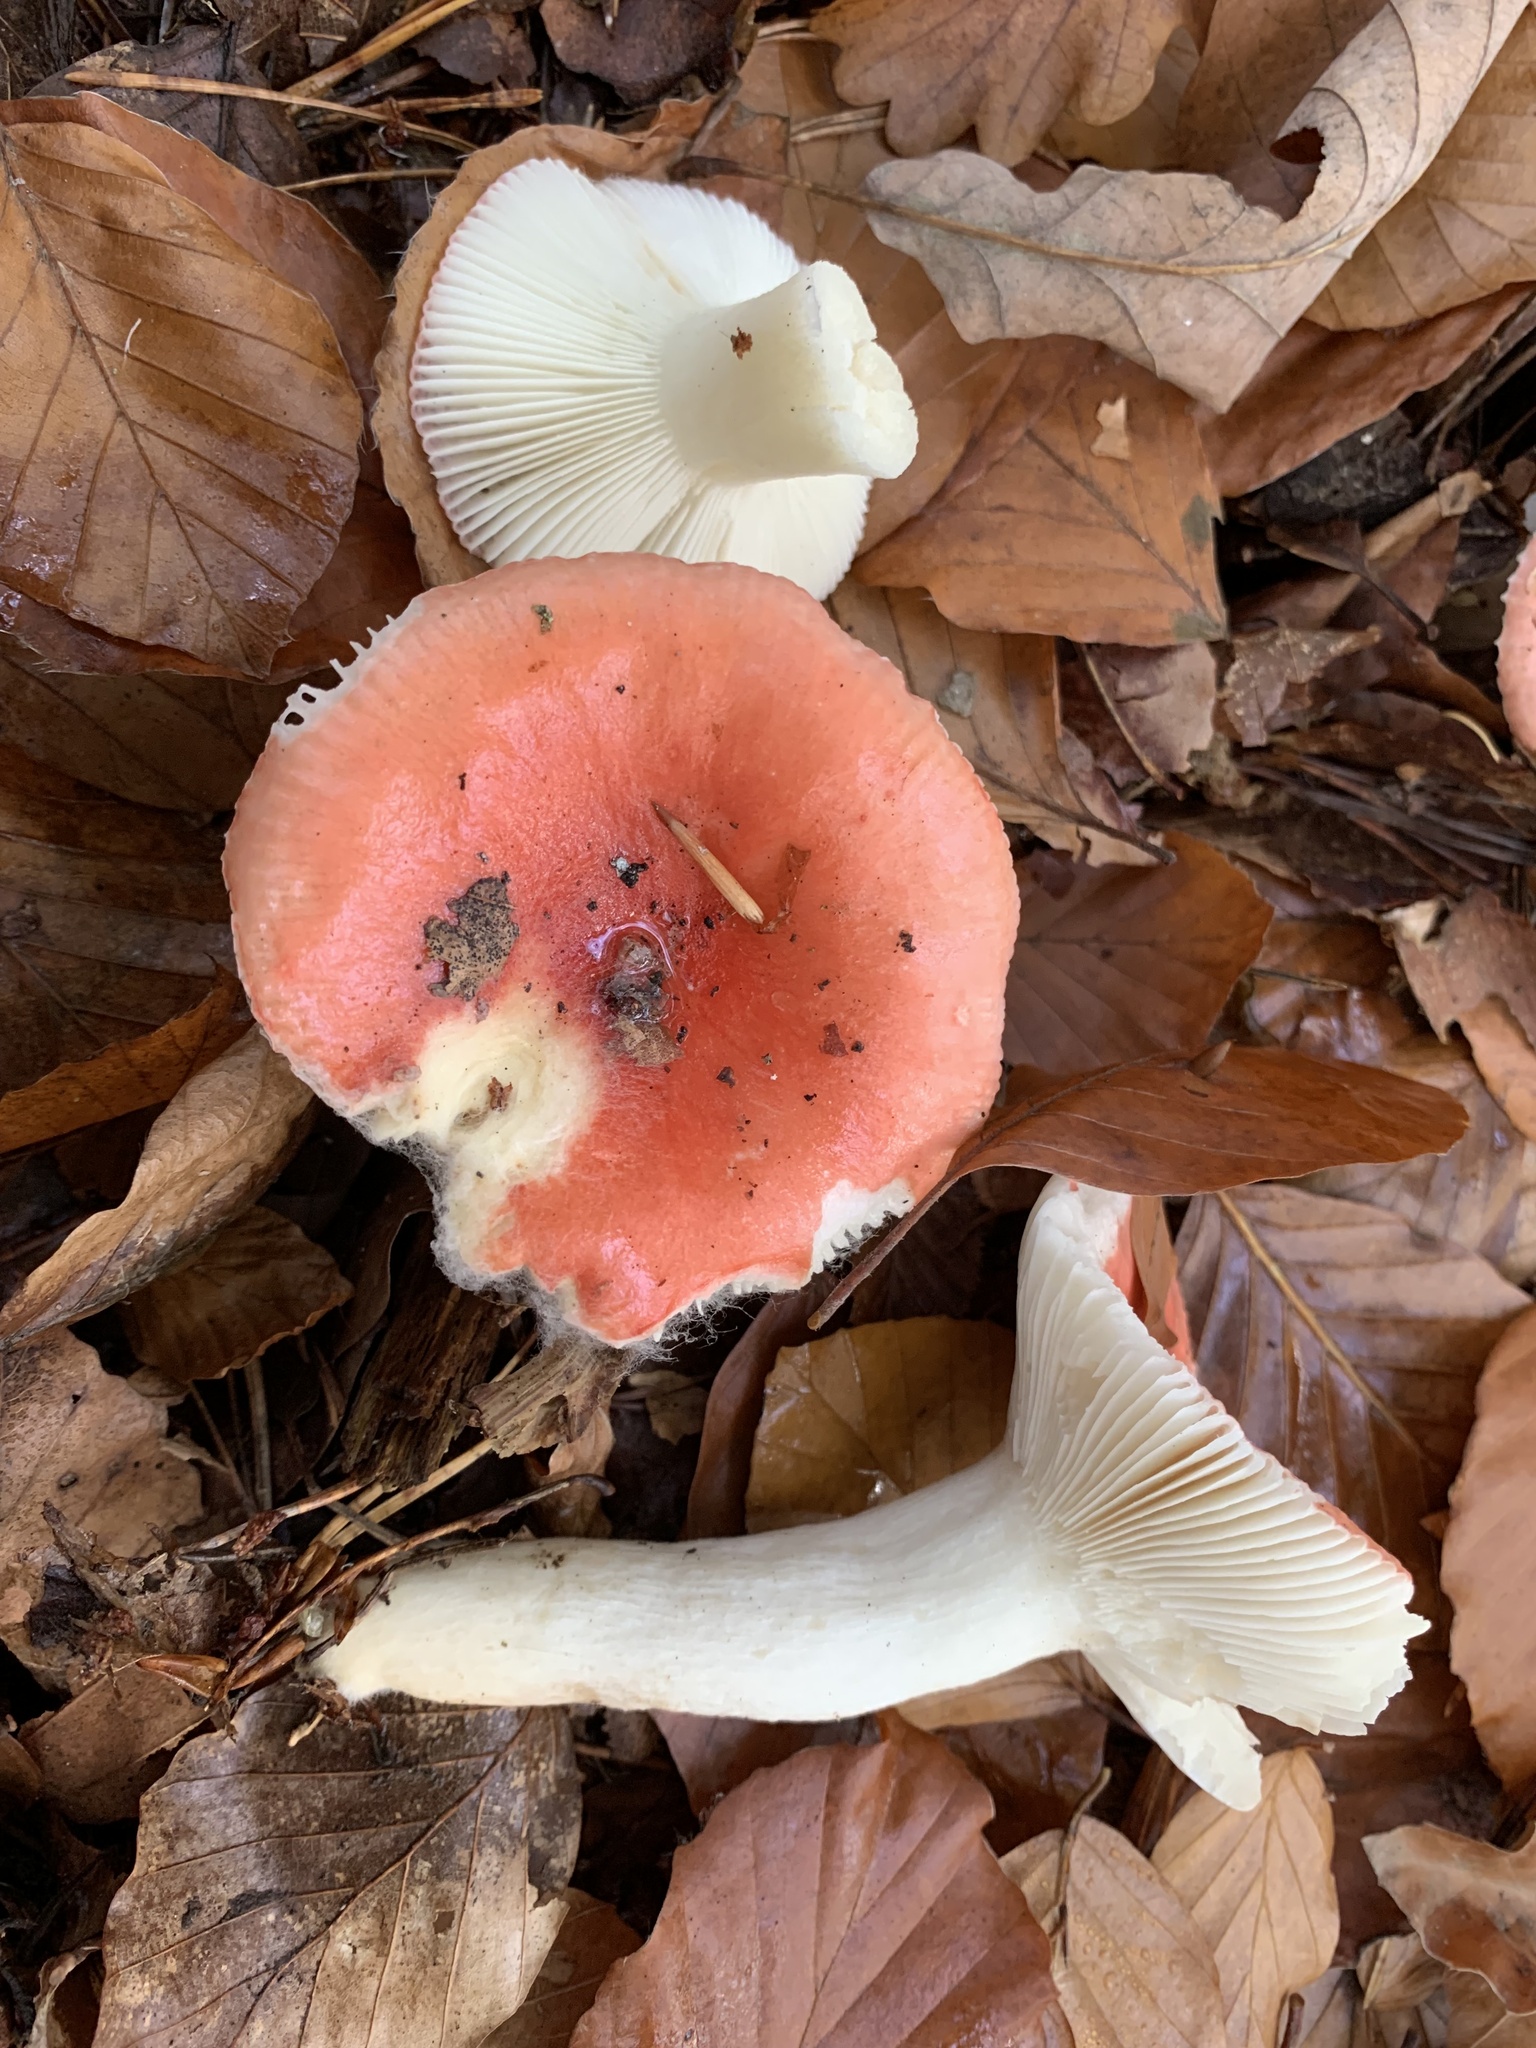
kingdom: Fungi
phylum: Basidiomycota
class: Agaricomycetes
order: Russulales
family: Russulaceae
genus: Russula
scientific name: Russula luteotacta
